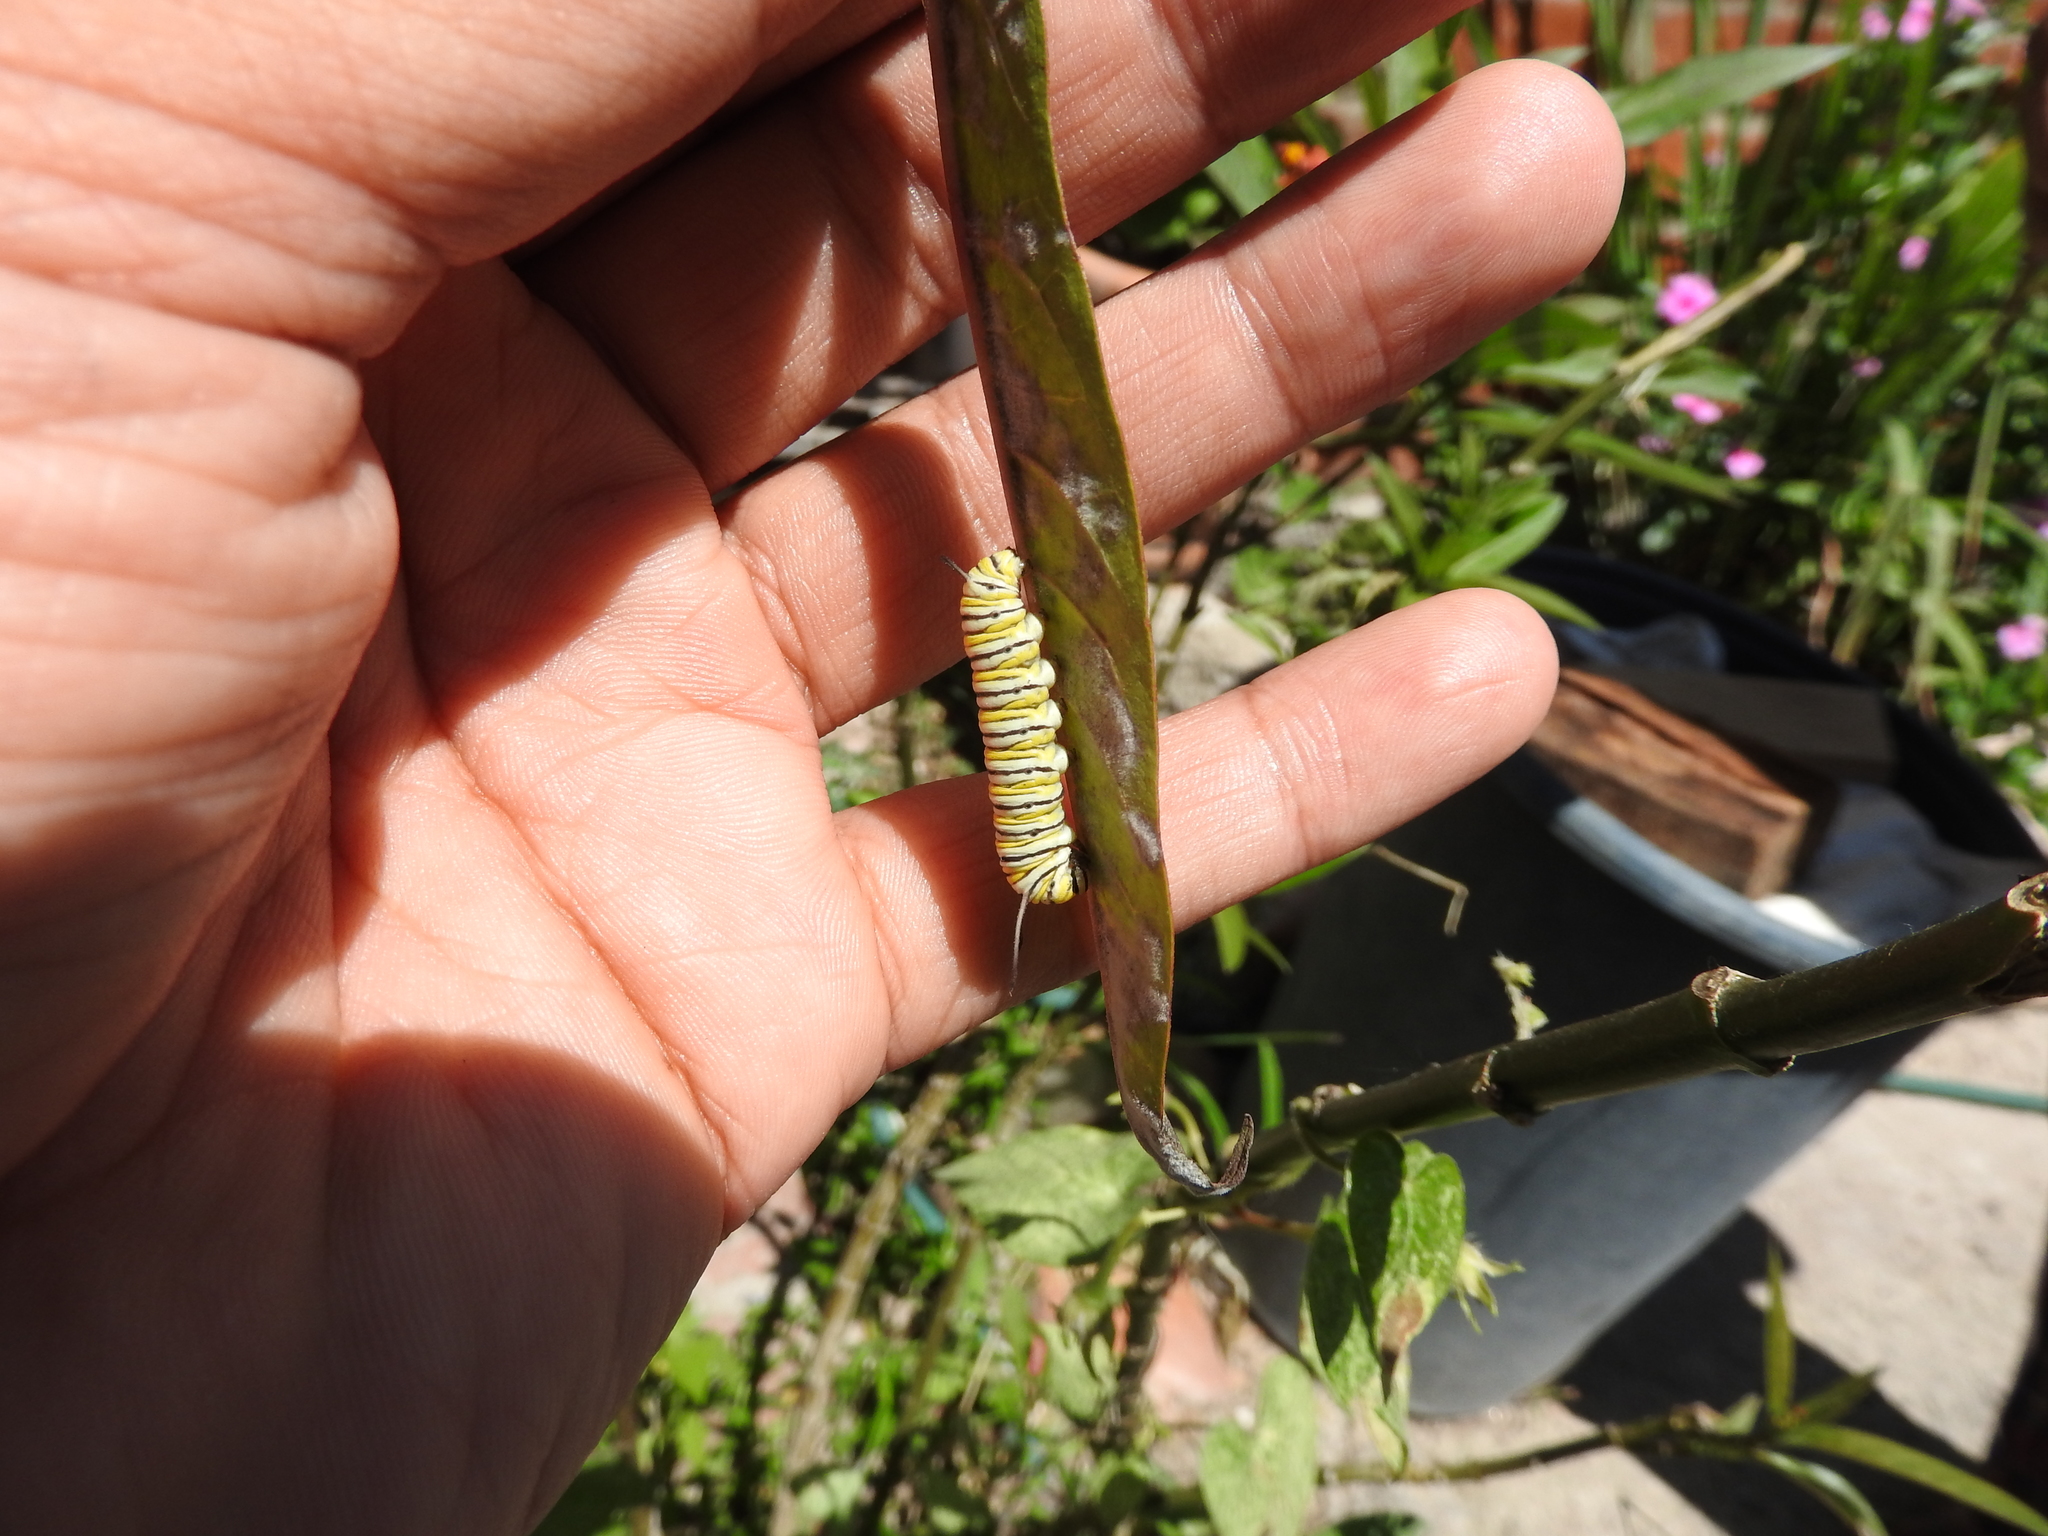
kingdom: Animalia
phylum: Arthropoda
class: Insecta
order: Lepidoptera
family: Nymphalidae
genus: Danaus
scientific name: Danaus plexippus
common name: Monarch
